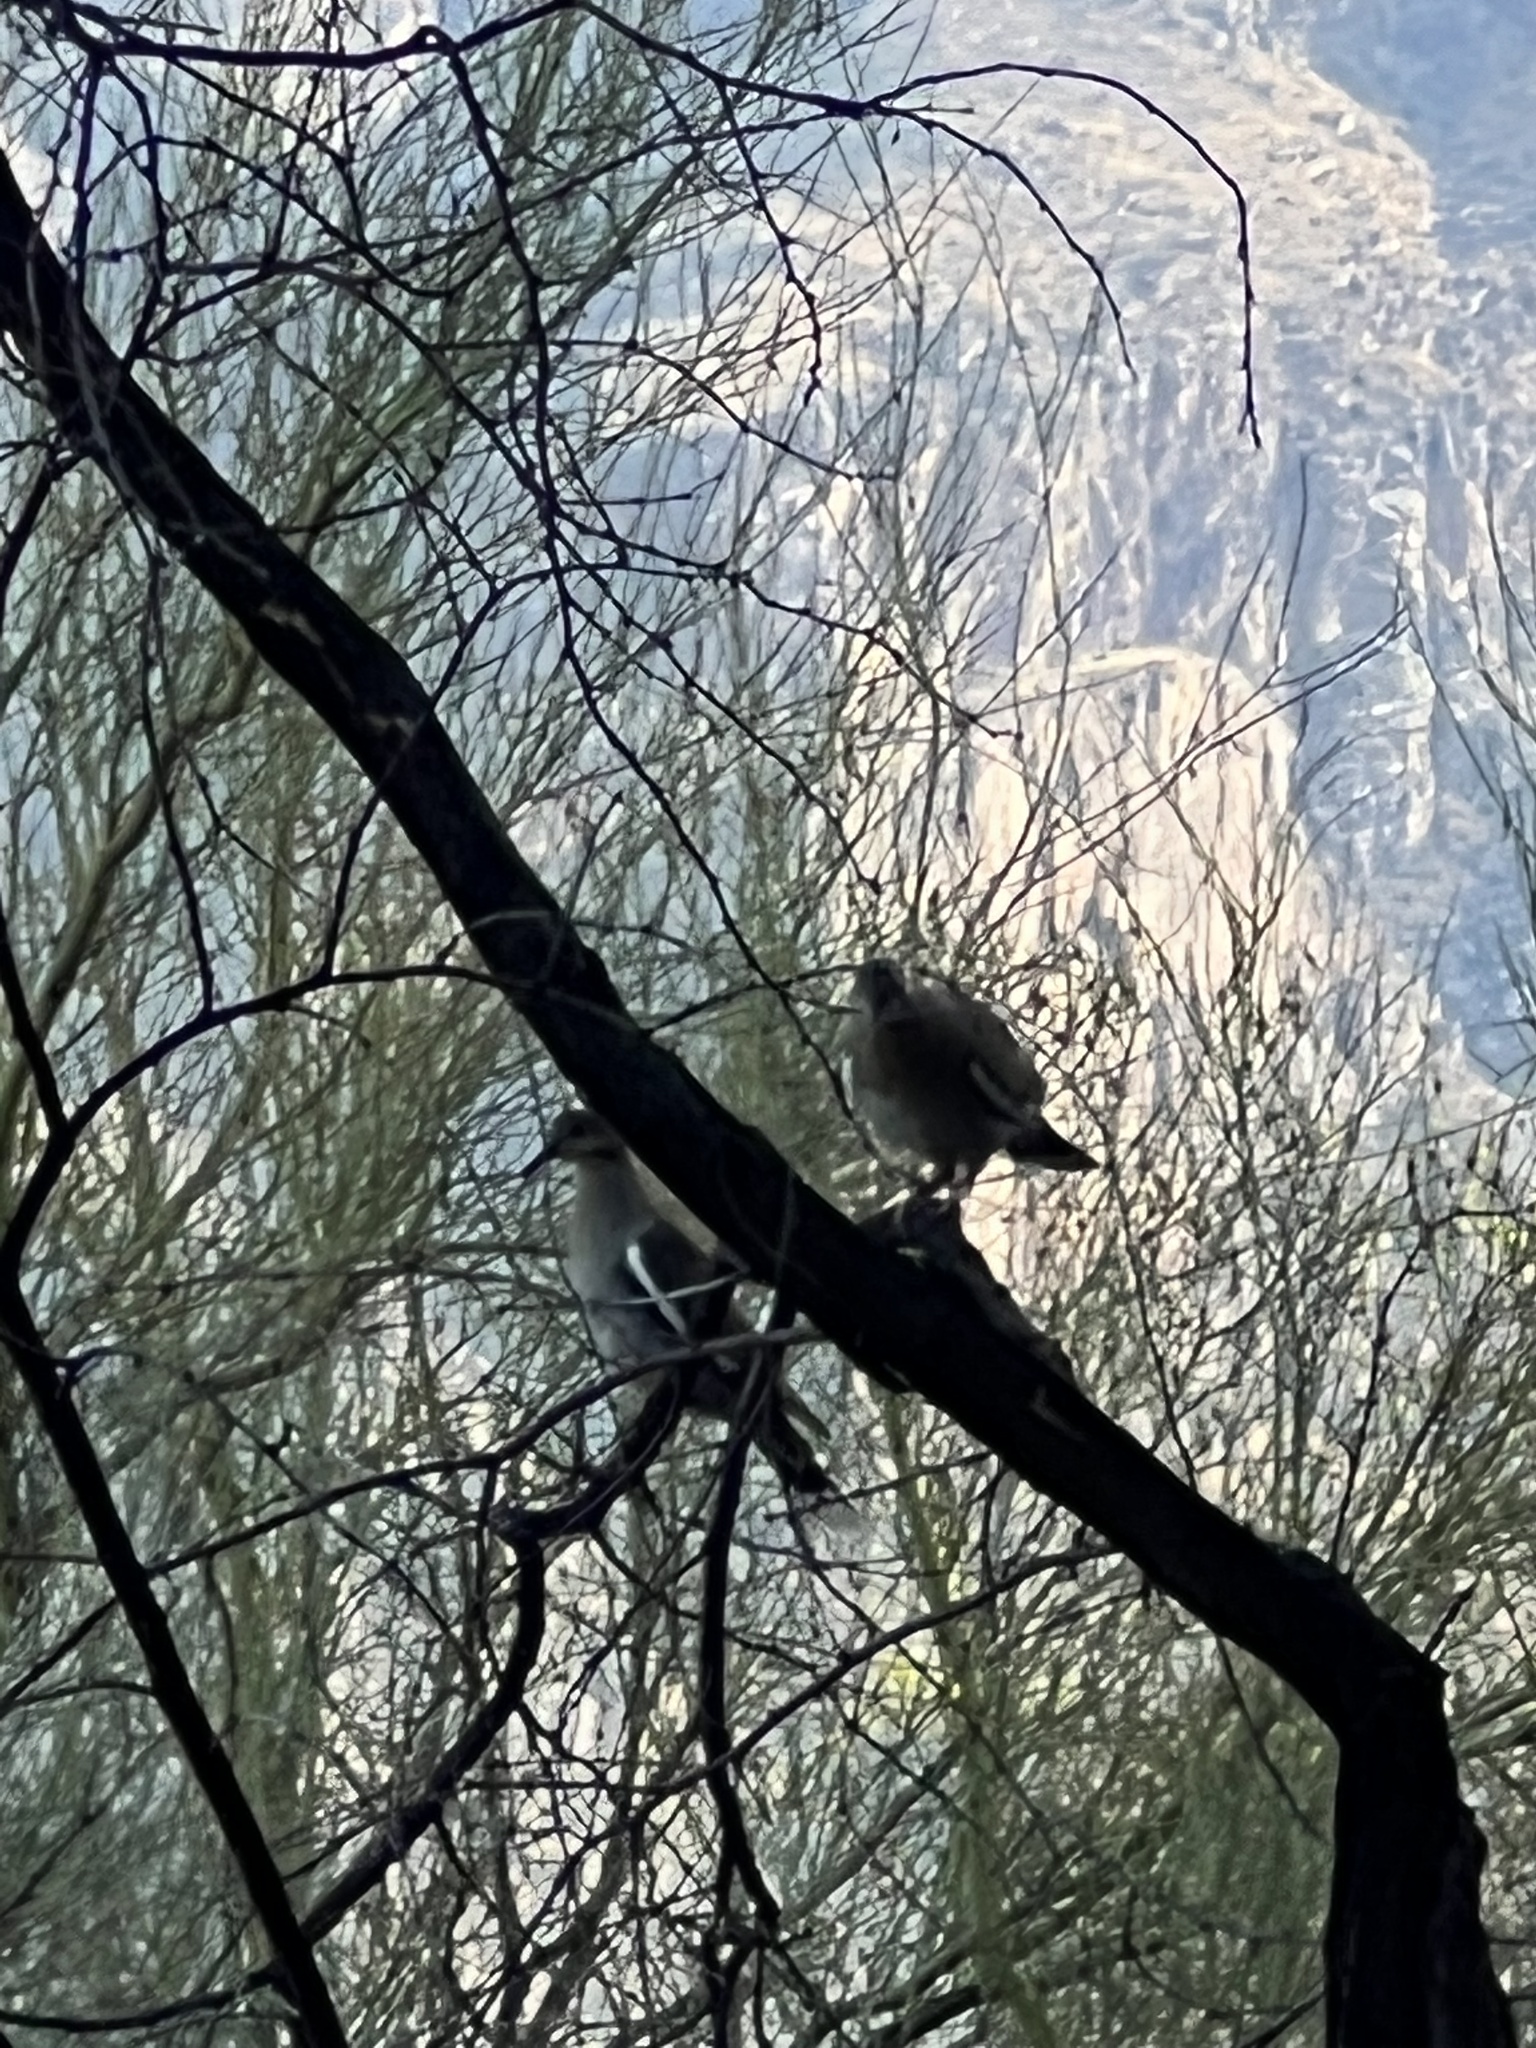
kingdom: Animalia
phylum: Chordata
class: Aves
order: Columbiformes
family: Columbidae
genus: Zenaida
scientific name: Zenaida asiatica
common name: White-winged dove
